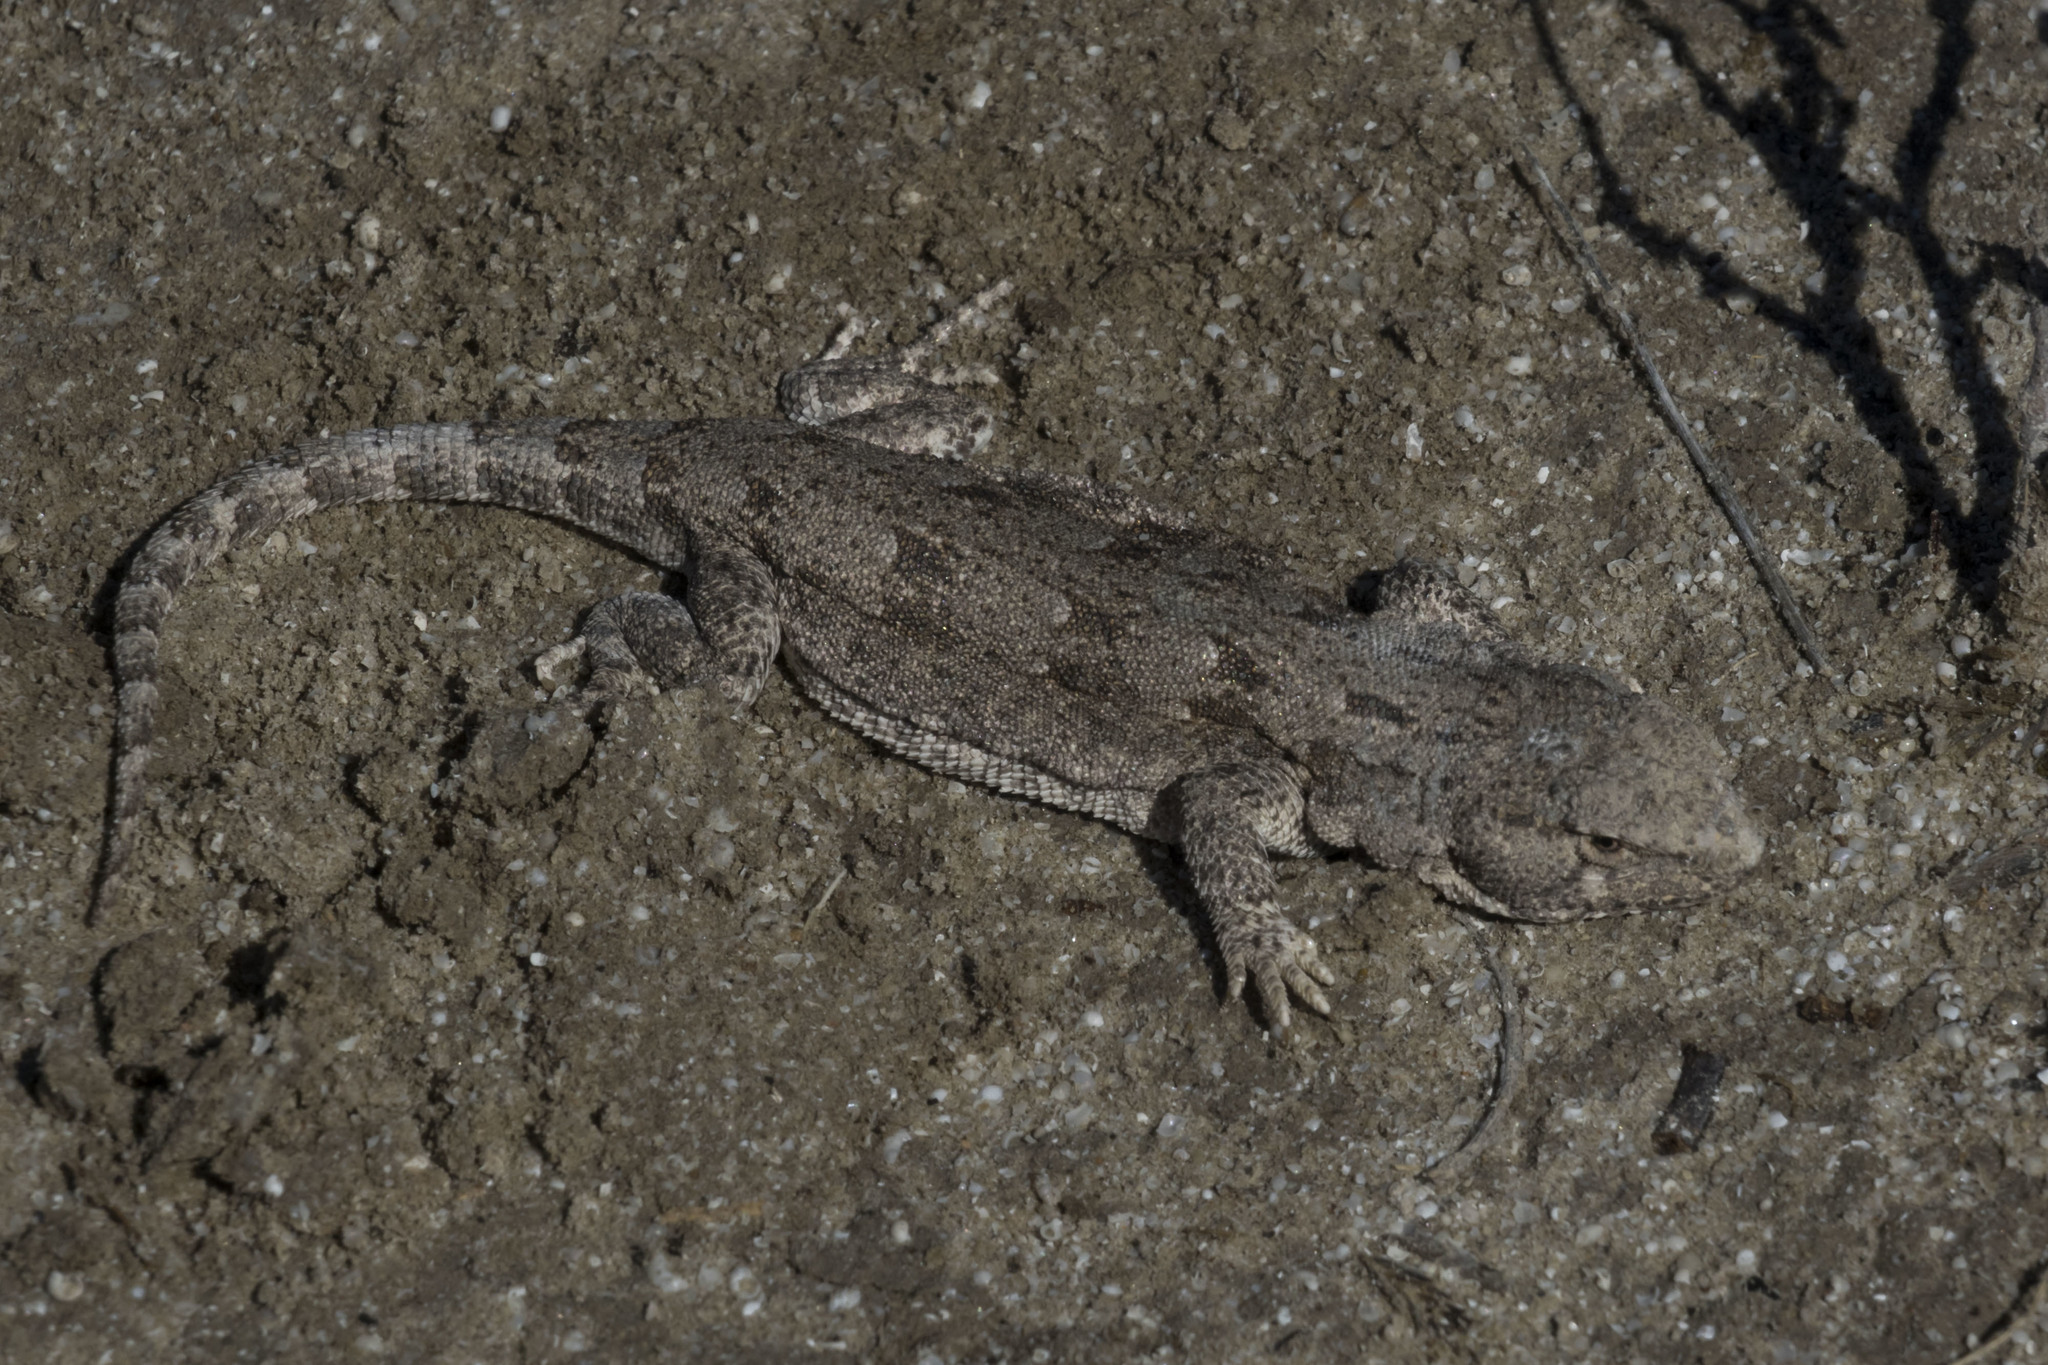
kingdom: Animalia
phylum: Chordata
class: Squamata
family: Liolaemidae
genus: Liolaemus
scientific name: Liolaemus millcayac
